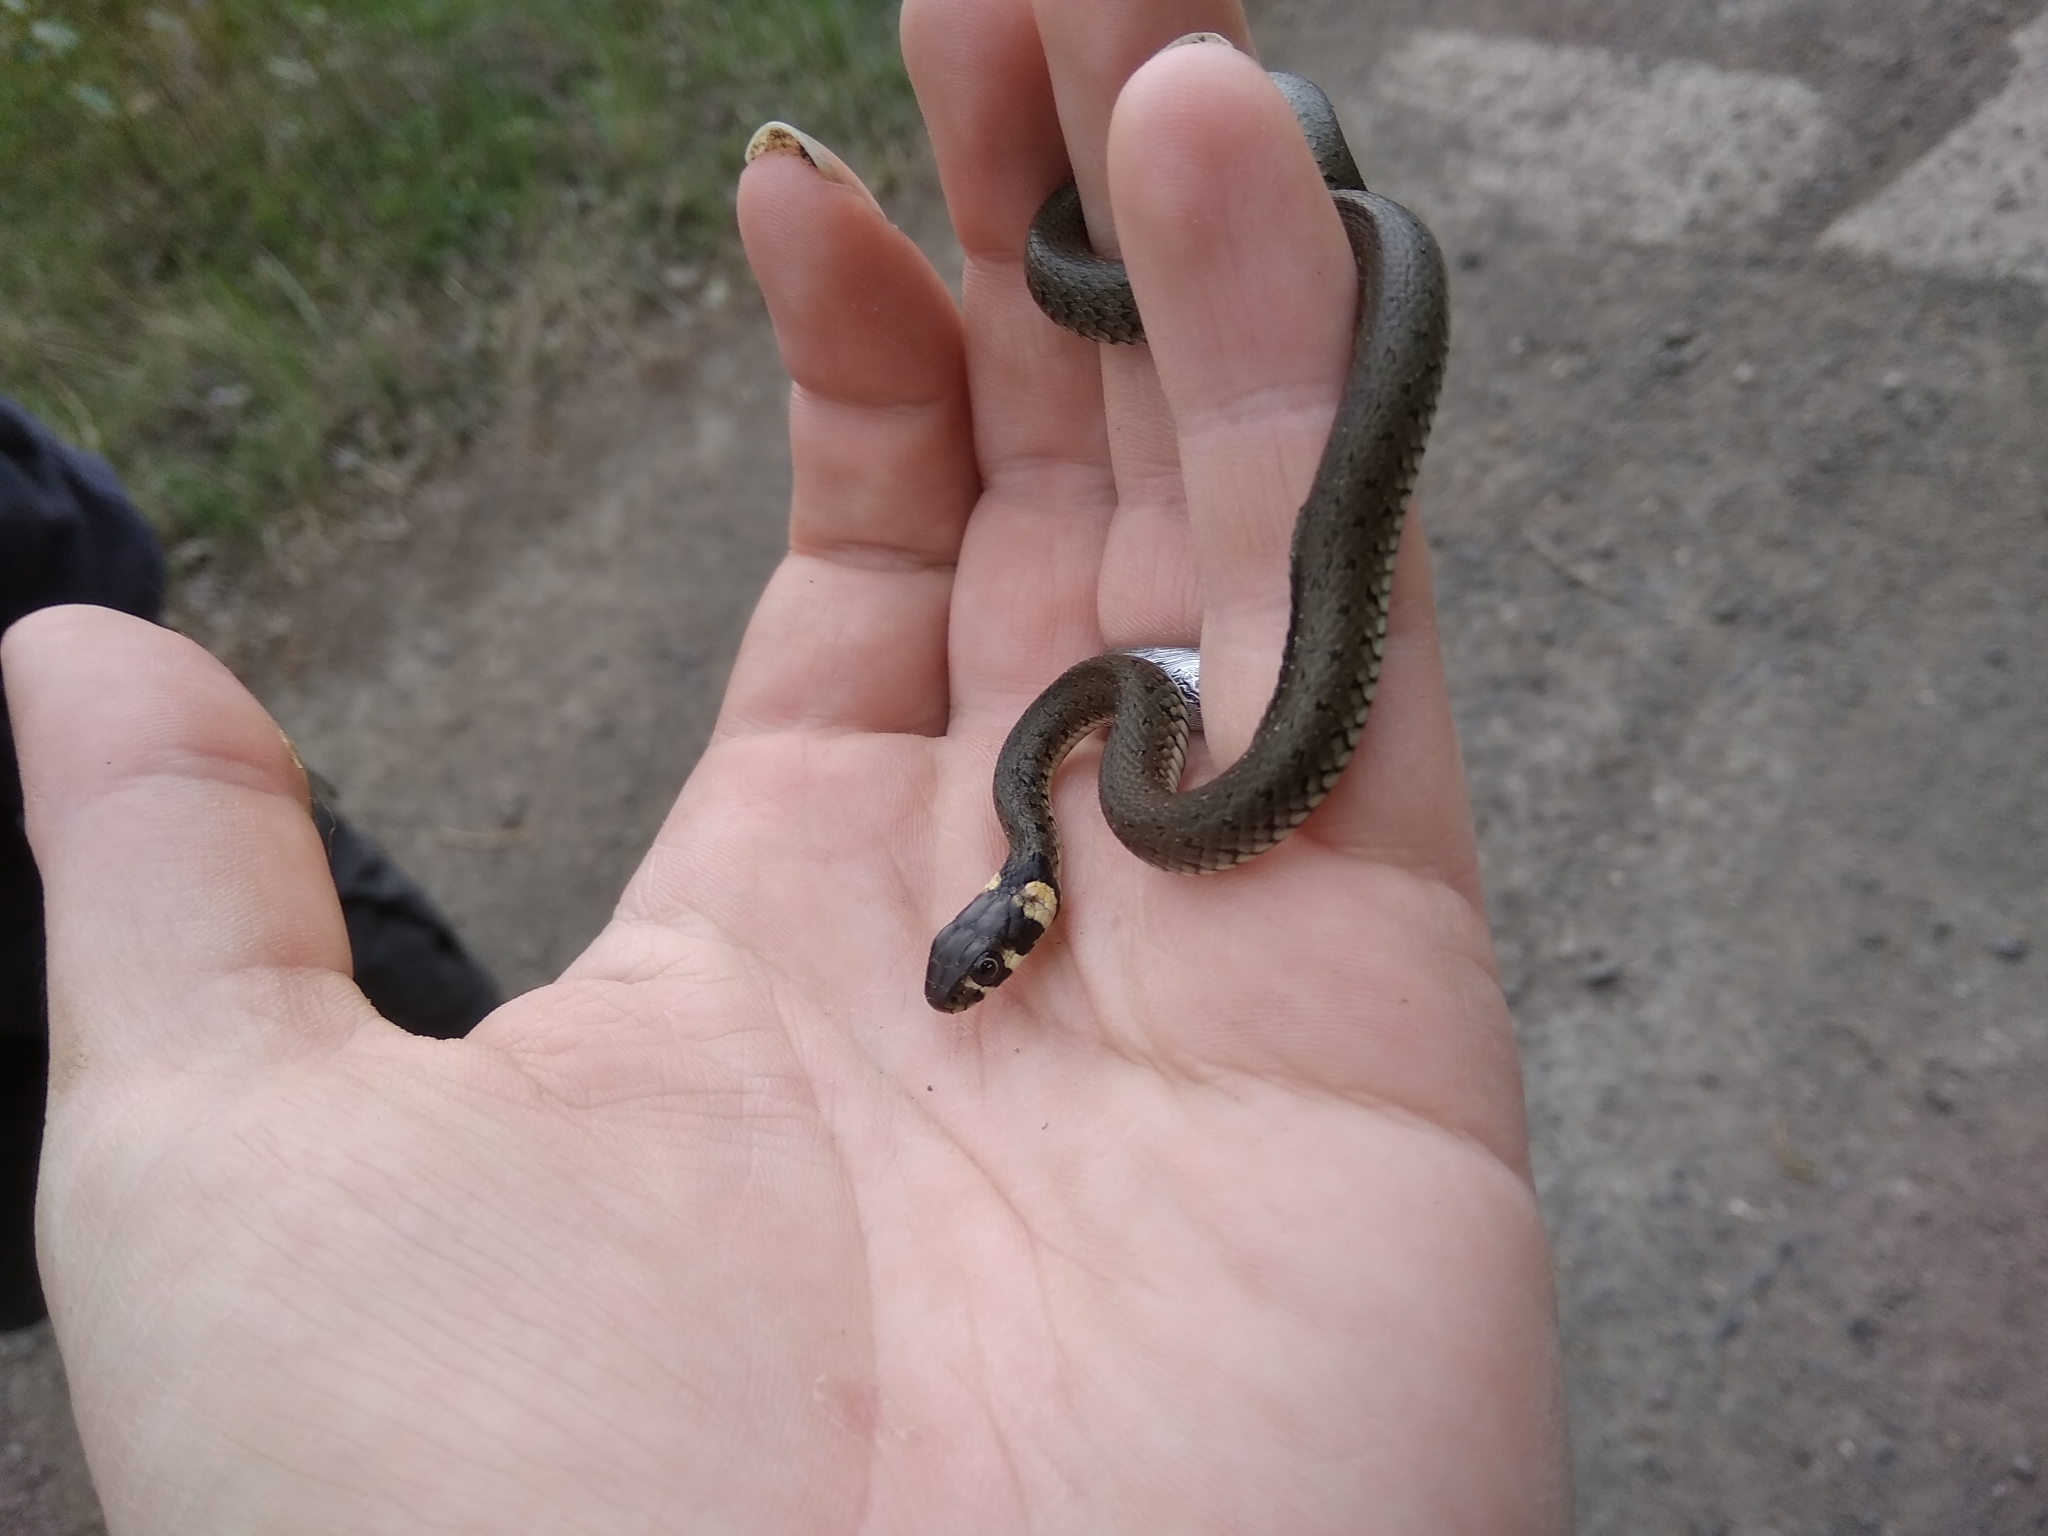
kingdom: Animalia
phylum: Chordata
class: Squamata
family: Colubridae
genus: Natrix
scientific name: Natrix natrix
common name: Grass snake
